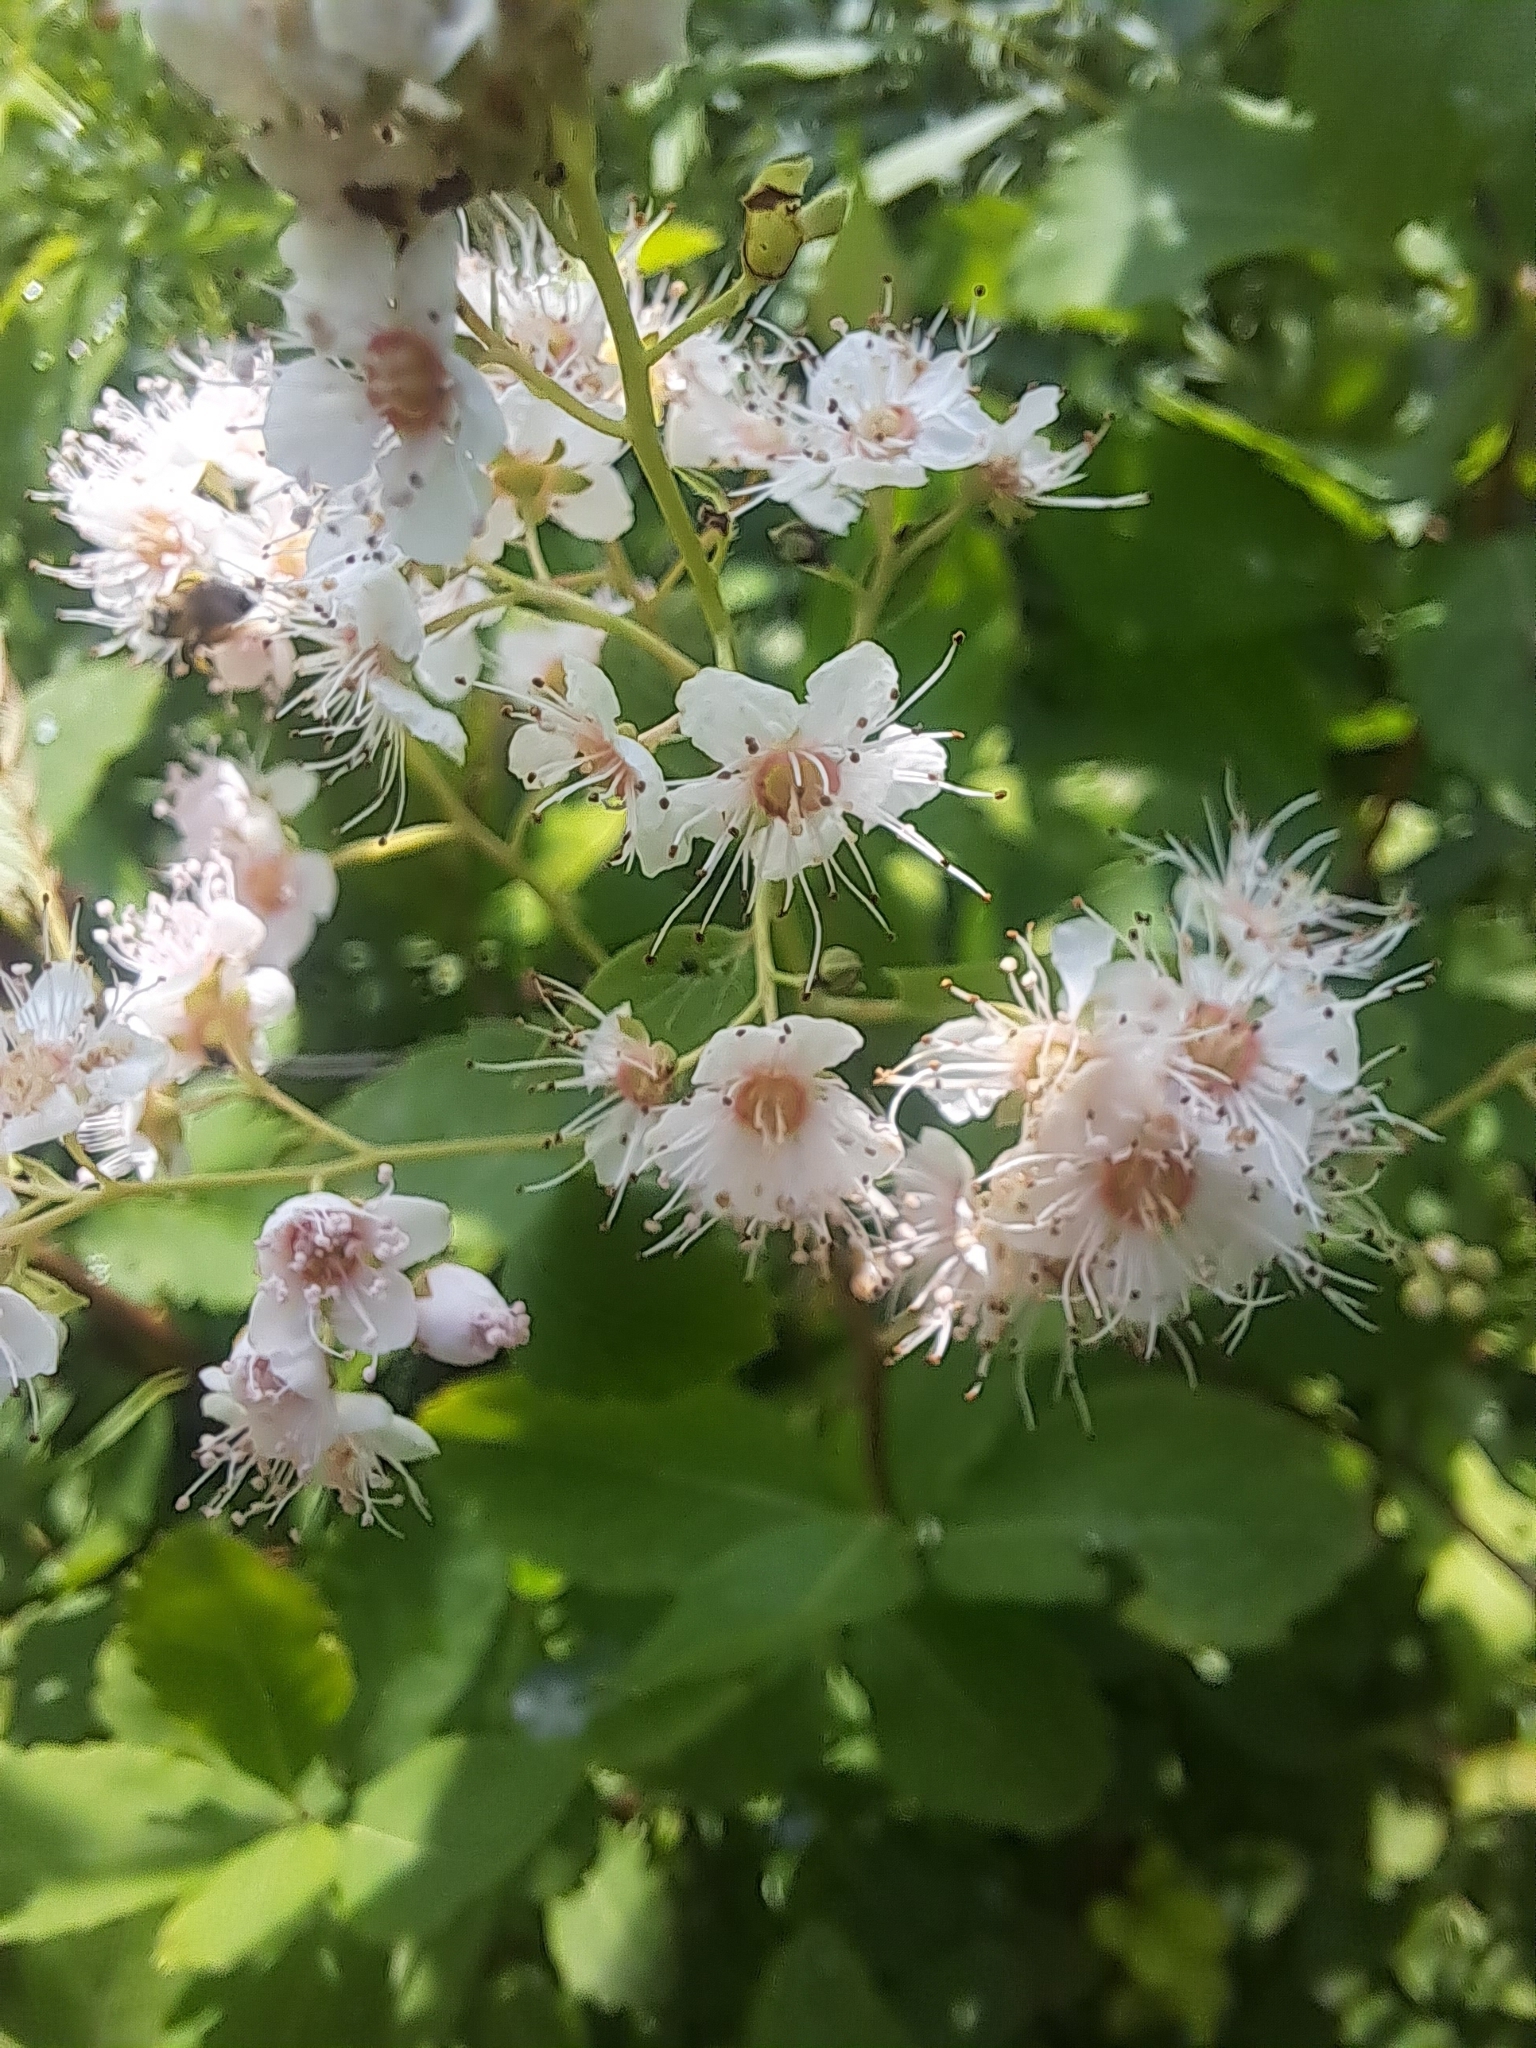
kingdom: Plantae
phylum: Tracheophyta
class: Magnoliopsida
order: Rosales
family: Rosaceae
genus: Spiraea
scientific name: Spiraea alba
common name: Pale bridewort
